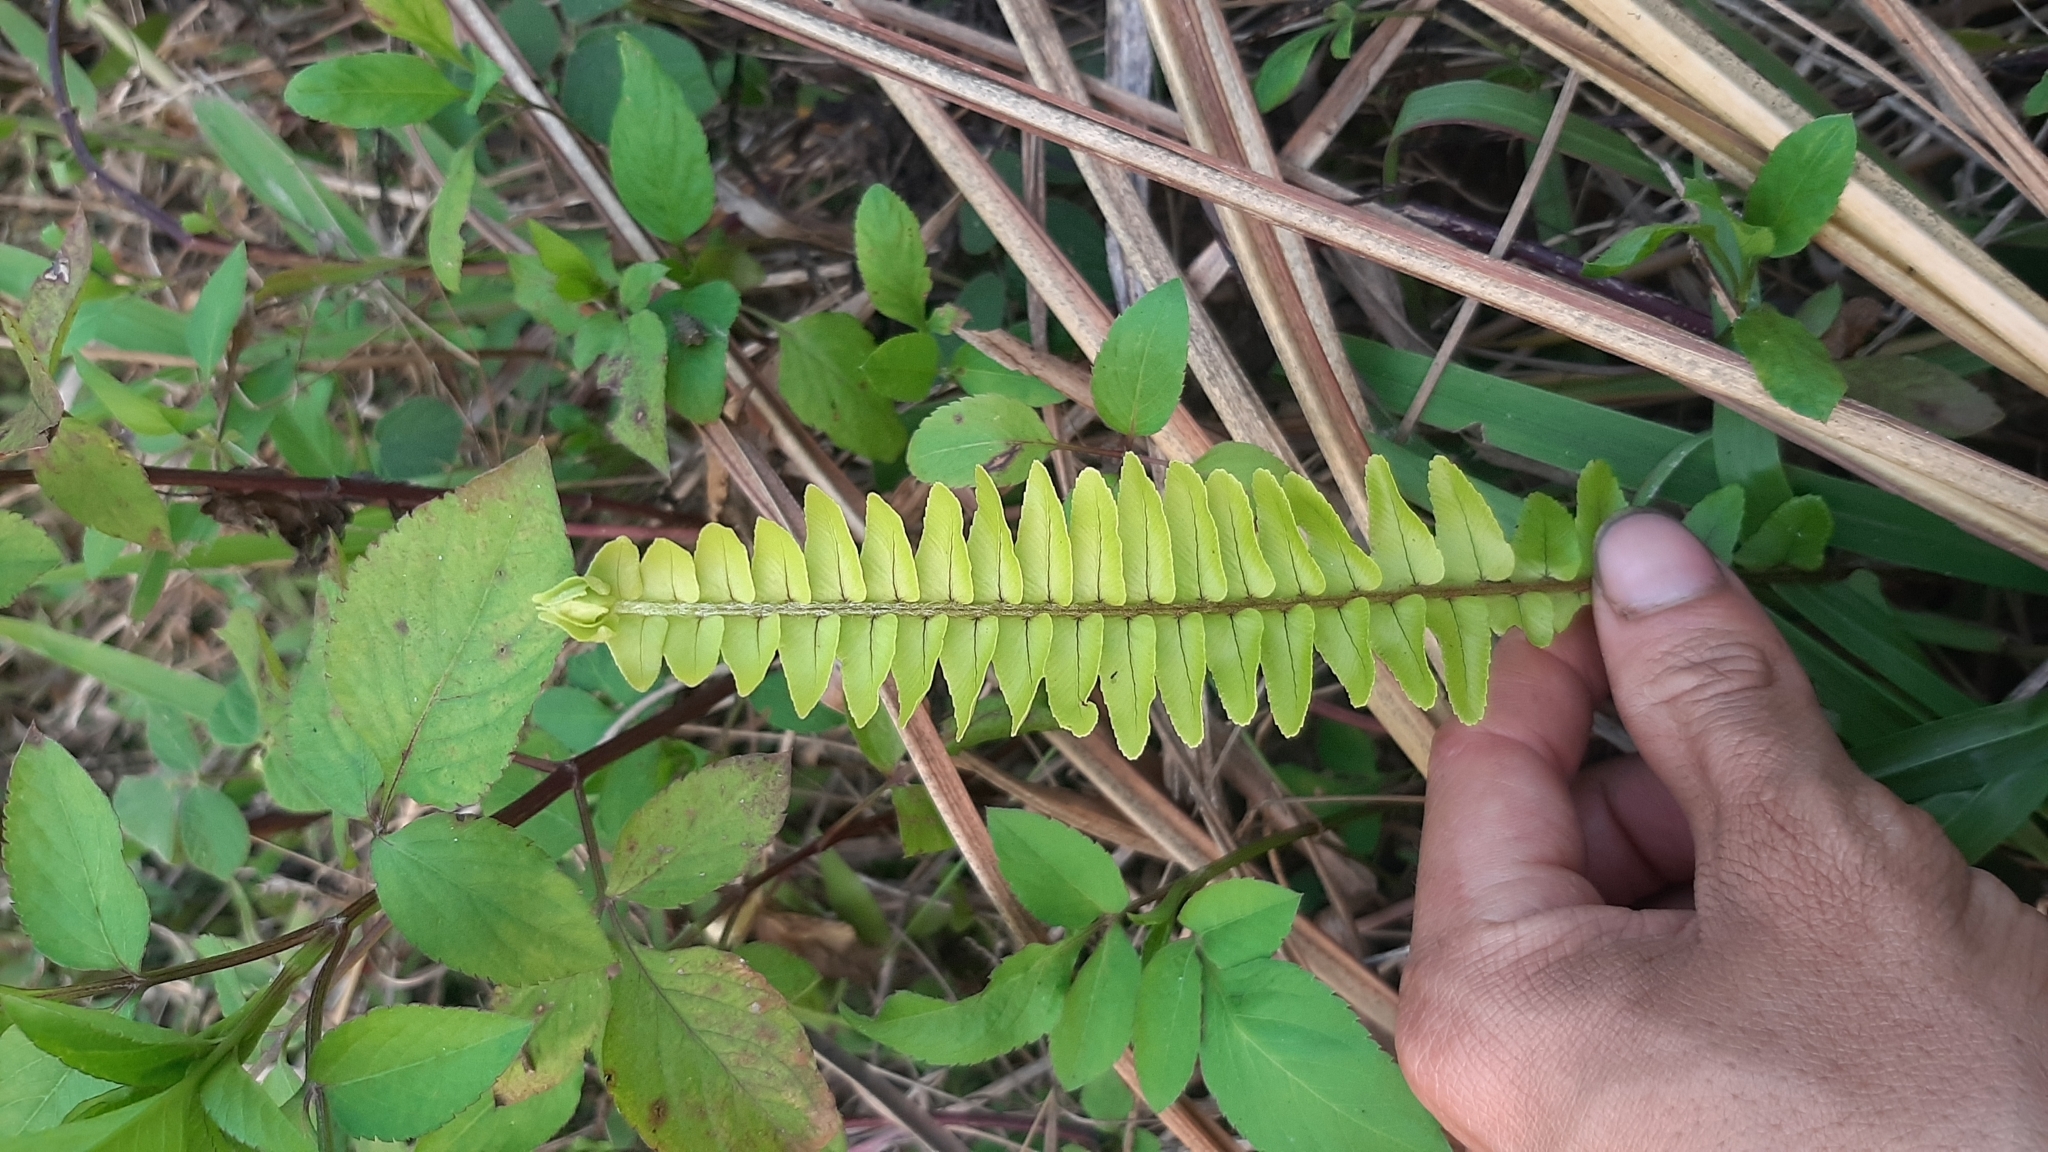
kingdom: Plantae
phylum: Tracheophyta
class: Polypodiopsida
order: Polypodiales
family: Nephrolepidaceae
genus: Nephrolepis
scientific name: Nephrolepis cordifolia
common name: Narrow swordfern
